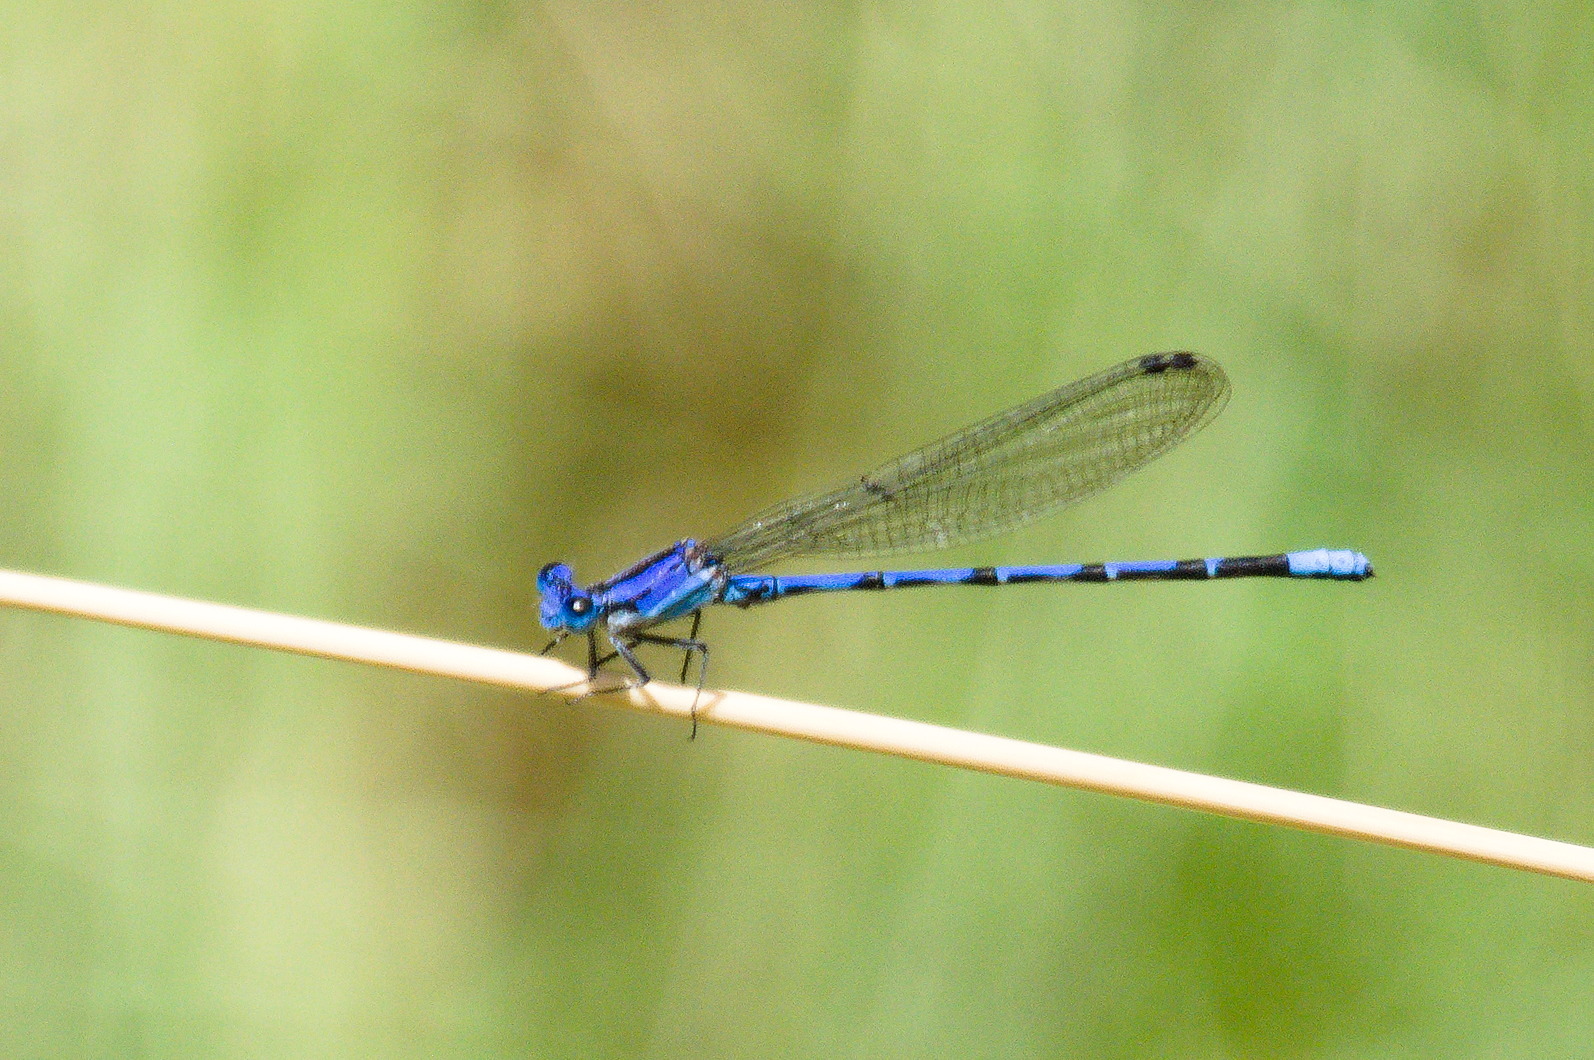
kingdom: Animalia
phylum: Arthropoda
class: Insecta
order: Odonata
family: Coenagrionidae
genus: Argia
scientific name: Argia extranea
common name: Spine-tipped dancer
